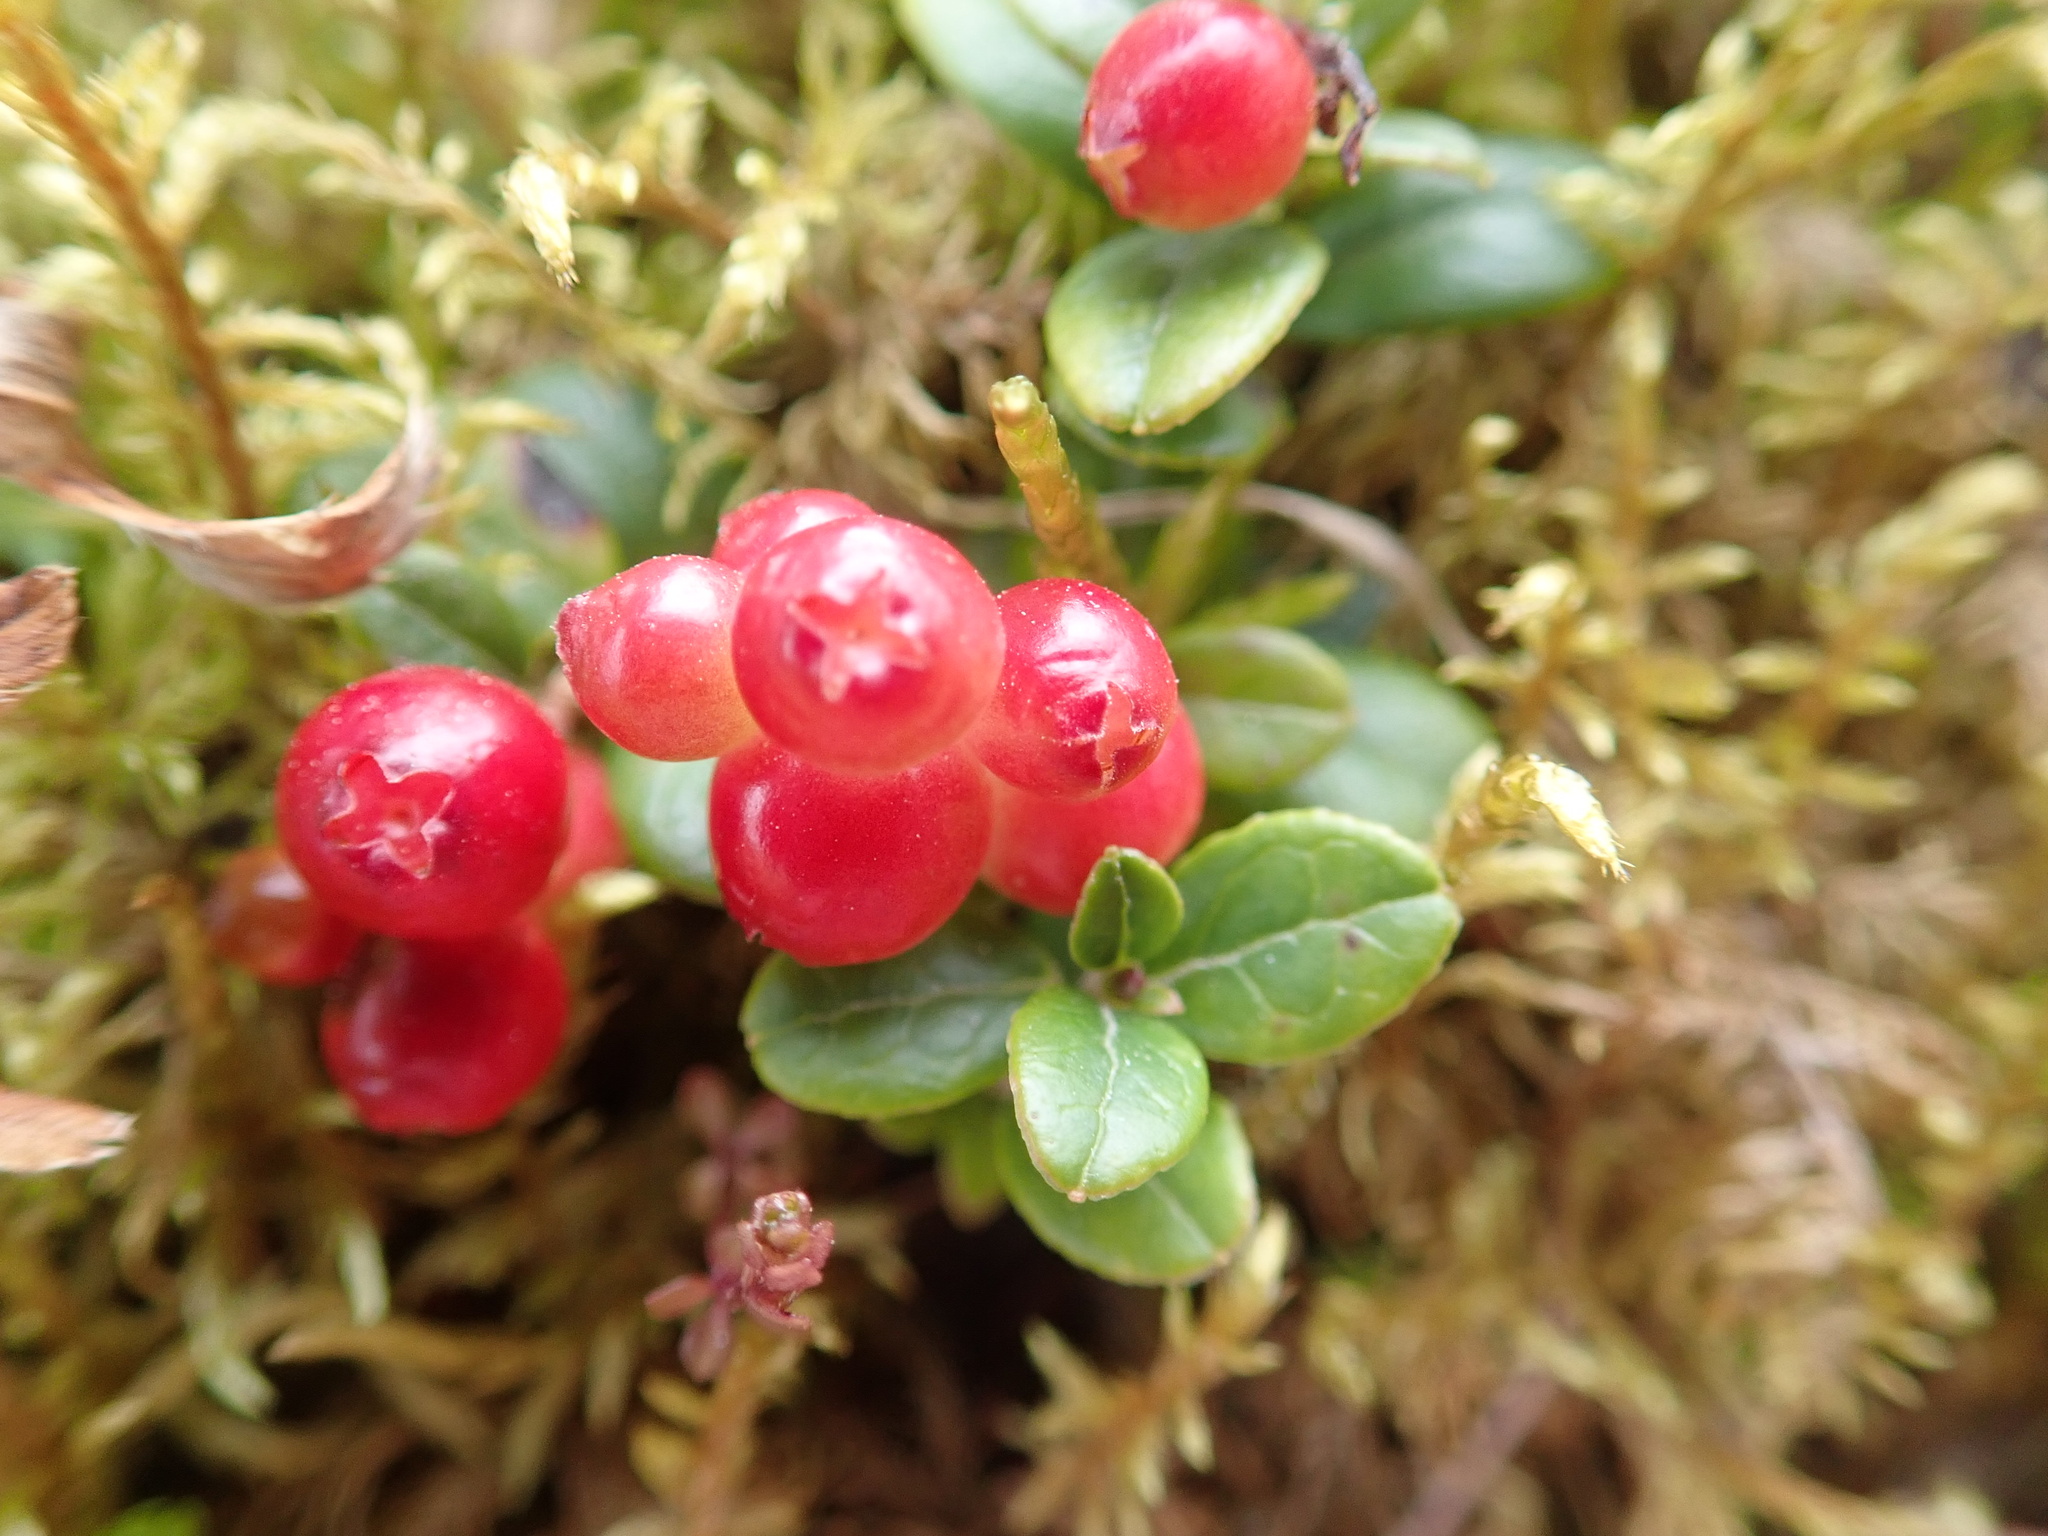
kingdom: Plantae
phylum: Tracheophyta
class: Magnoliopsida
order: Ericales
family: Ericaceae
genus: Vaccinium
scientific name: Vaccinium vitis-idaea
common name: Cowberry
